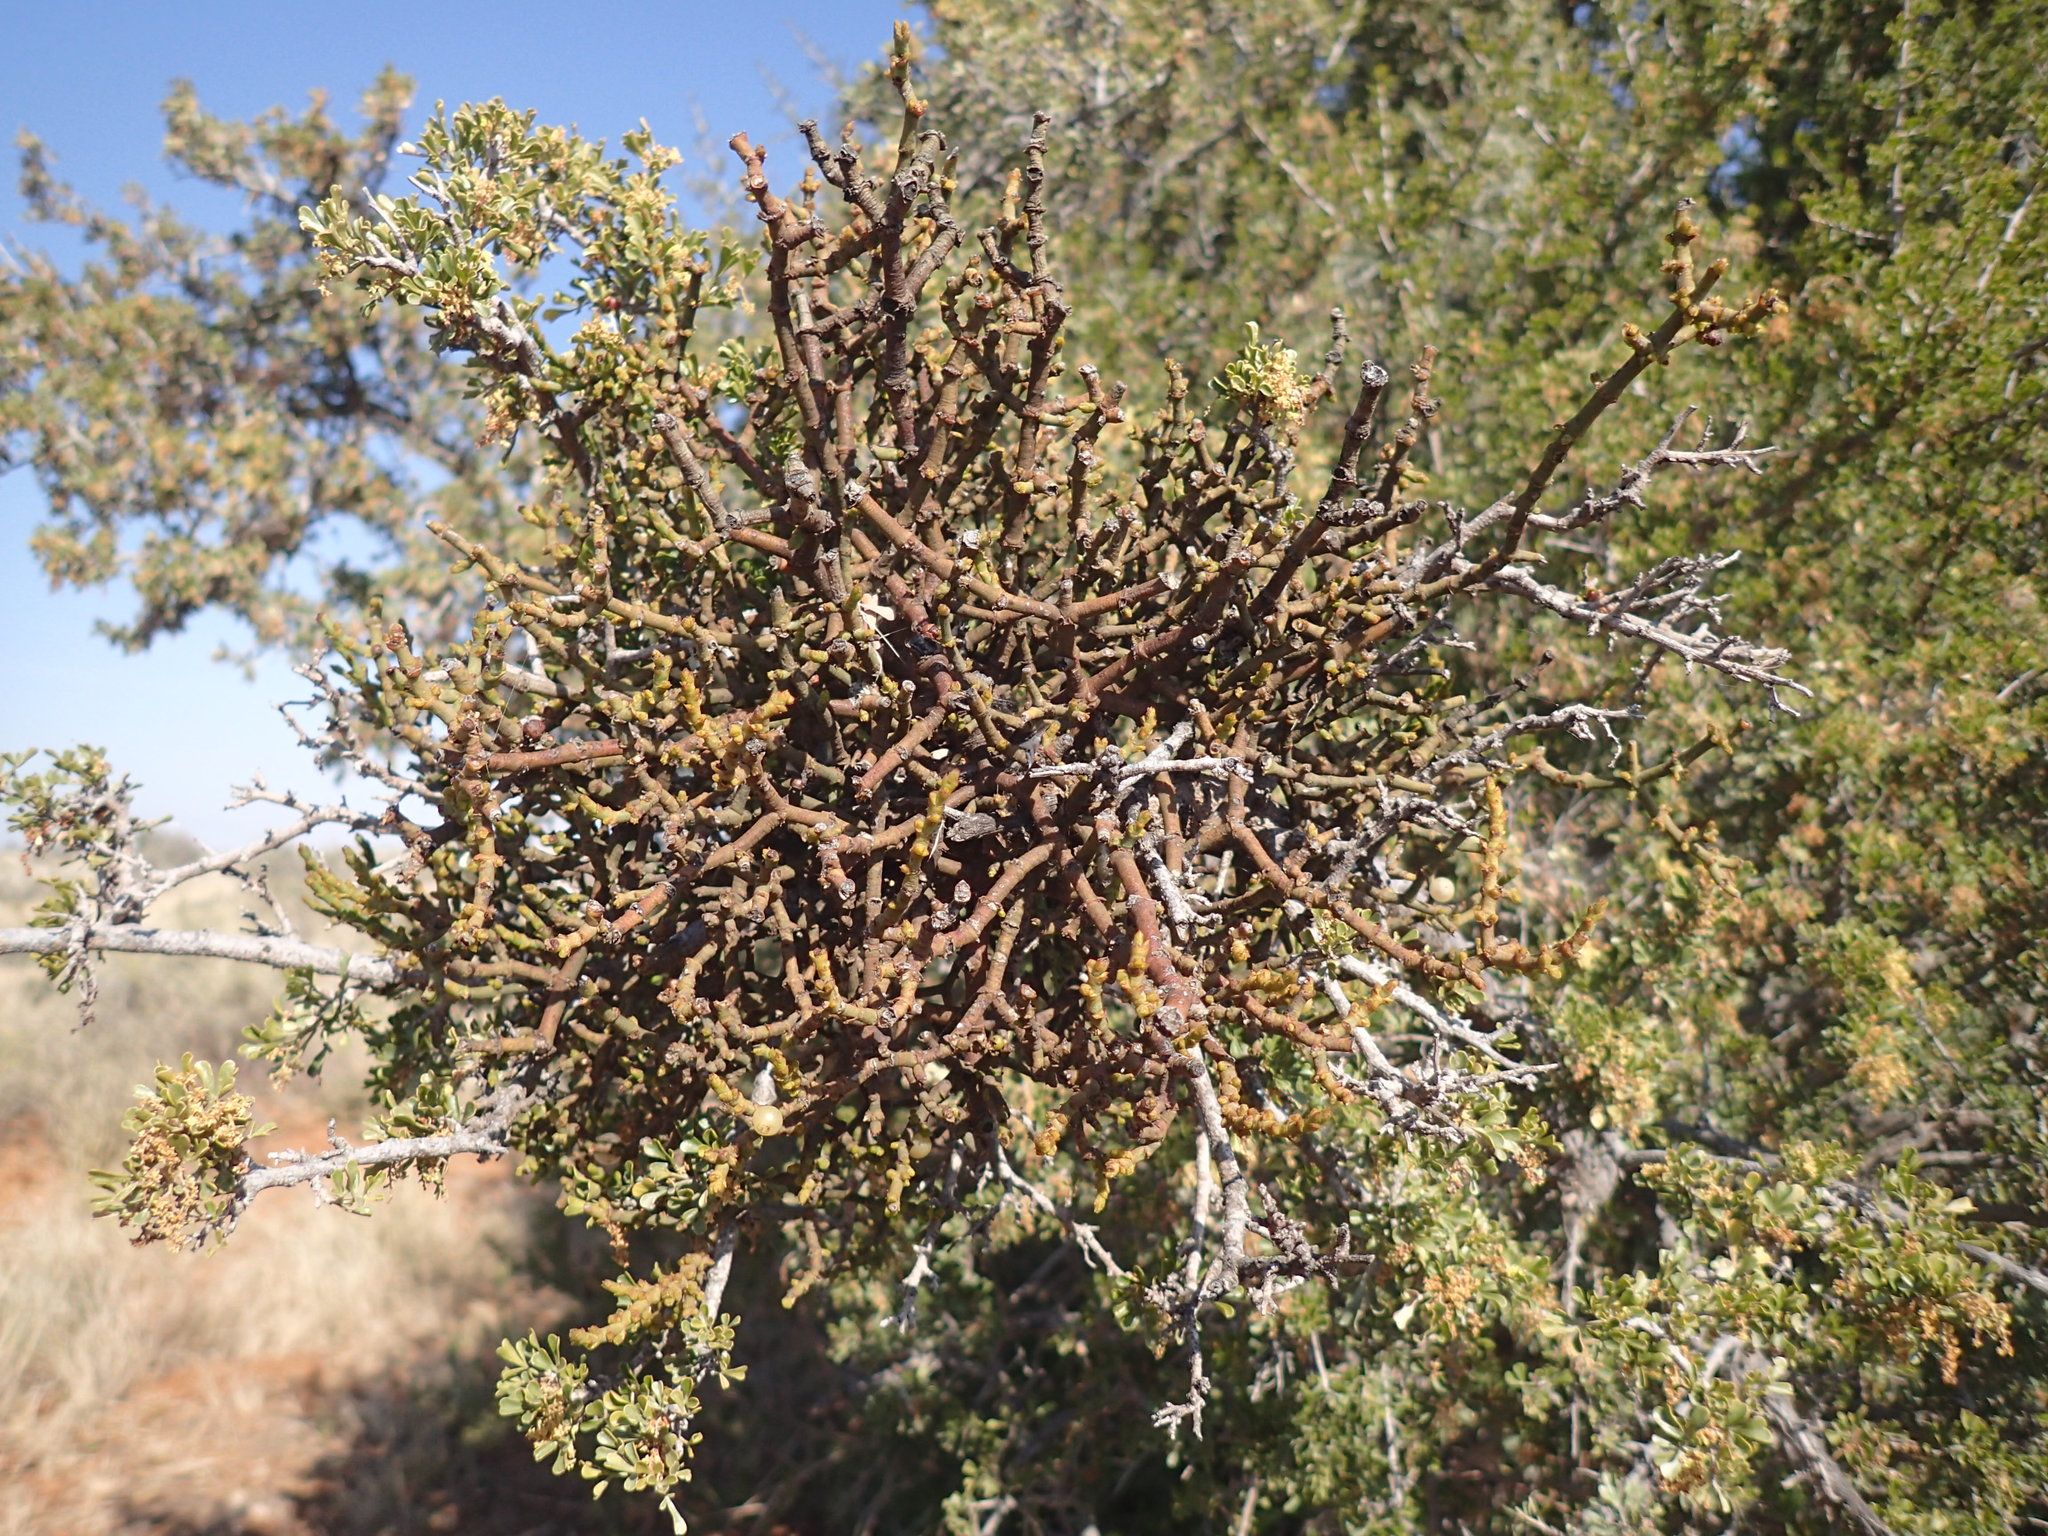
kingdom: Plantae
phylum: Tracheophyta
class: Magnoliopsida
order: Santalales
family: Viscaceae
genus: Viscum
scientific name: Viscum hoolei
